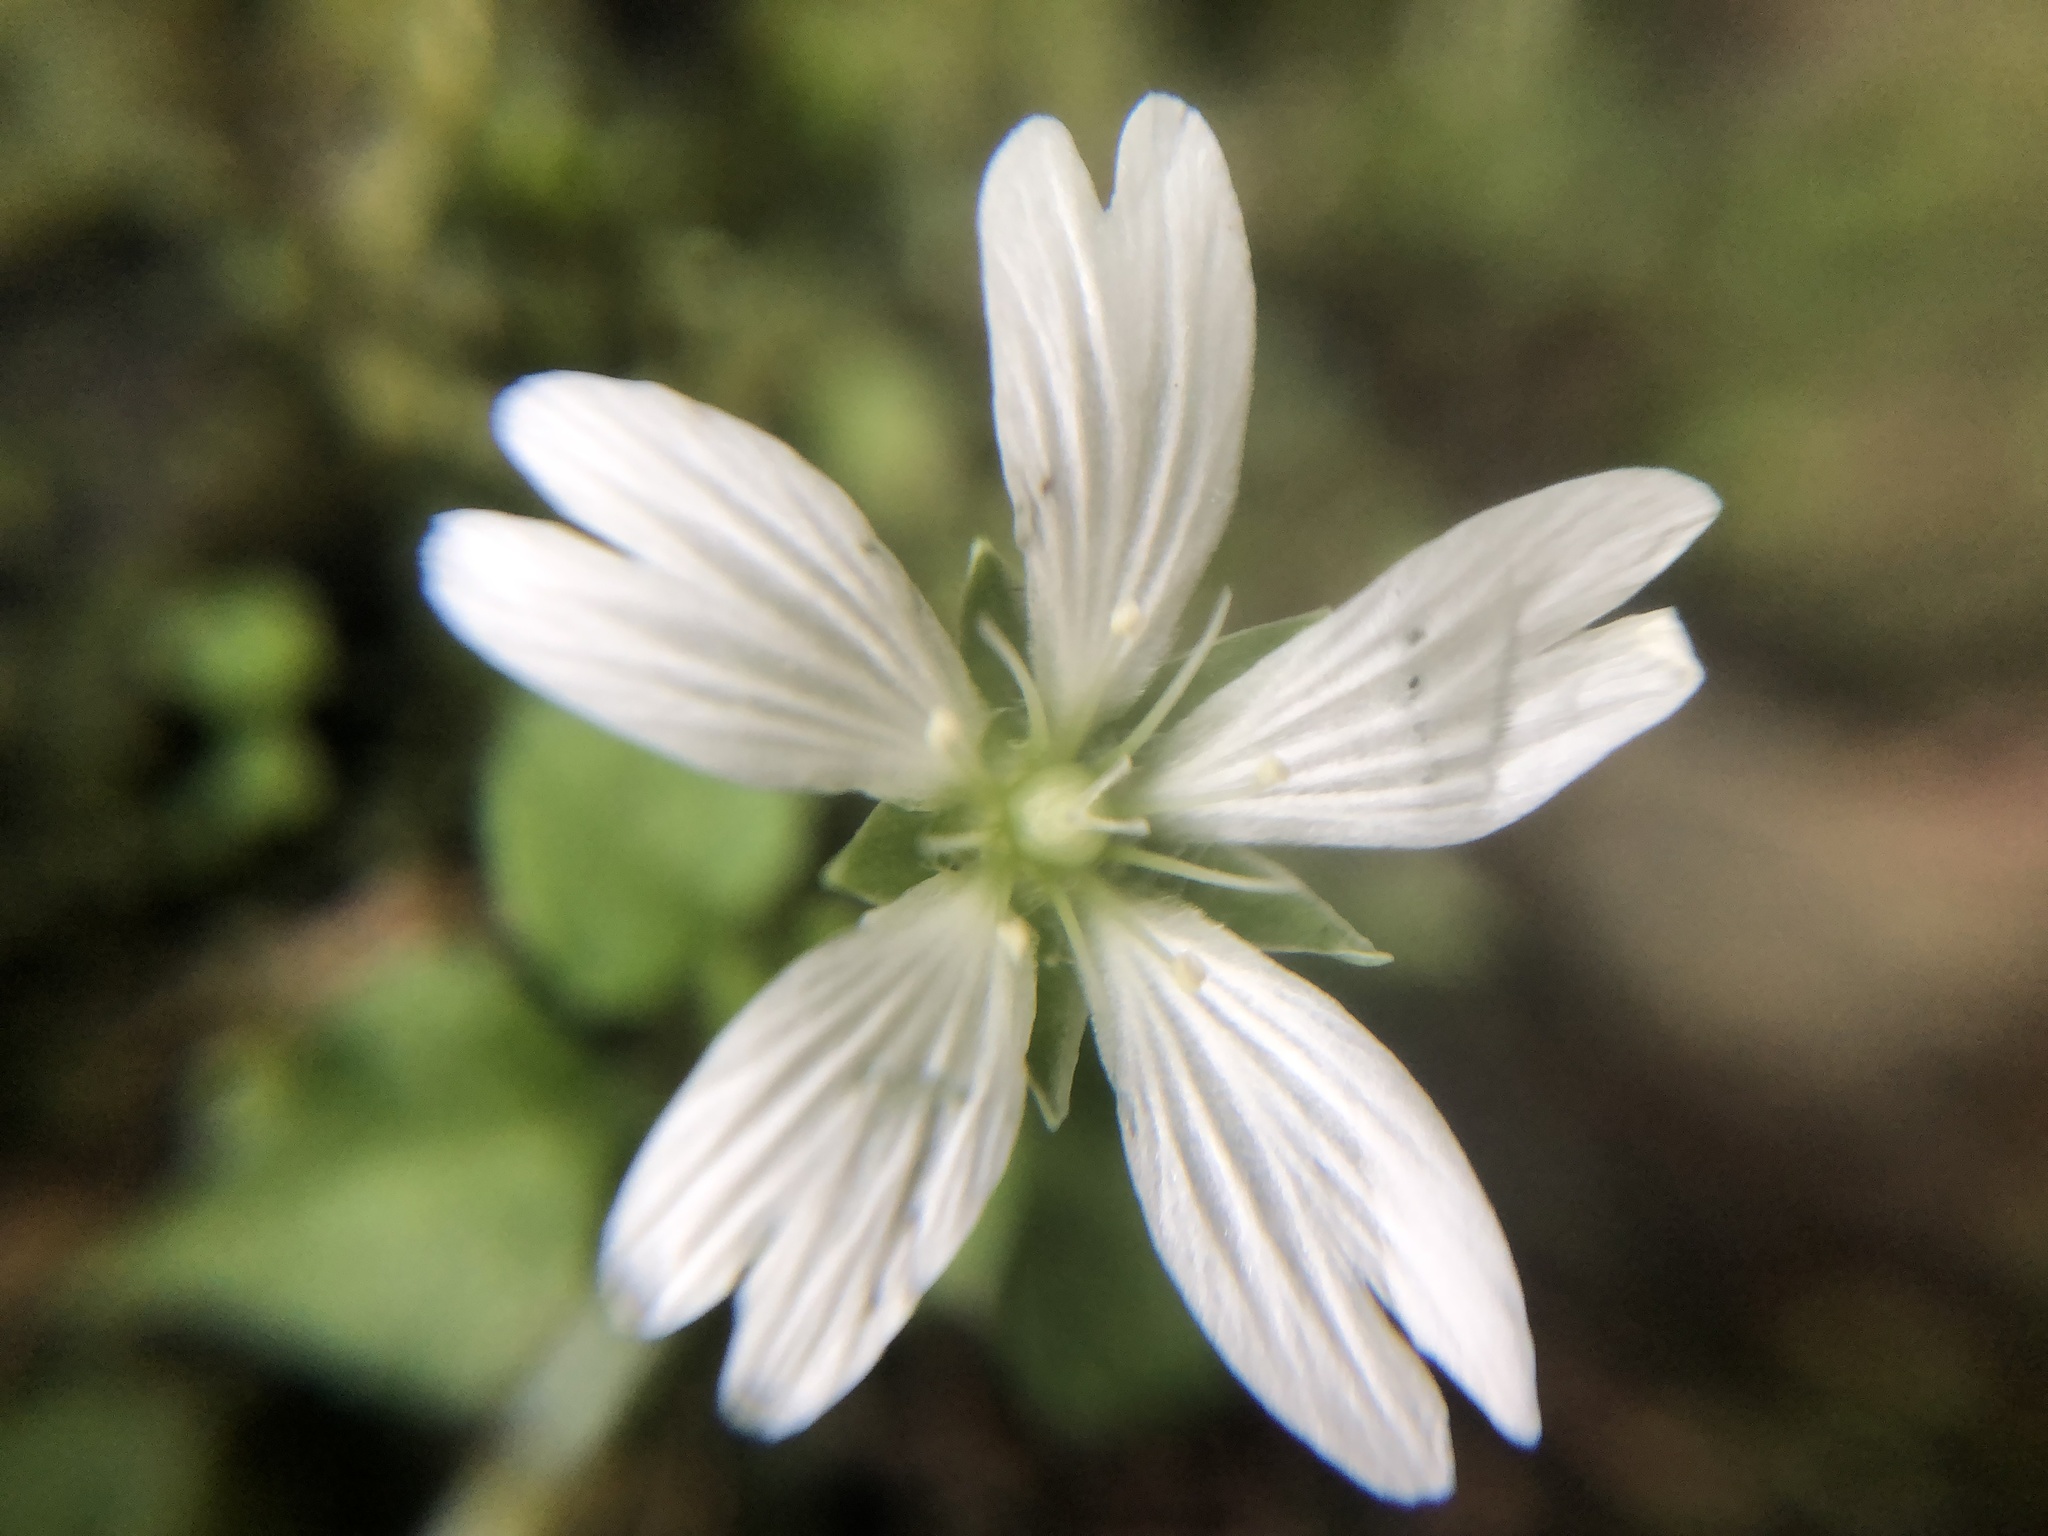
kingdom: Plantae
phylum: Tracheophyta
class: Magnoliopsida
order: Caryophyllales
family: Caryophyllaceae
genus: Nubelaria
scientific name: Nubelaria arisanensis
